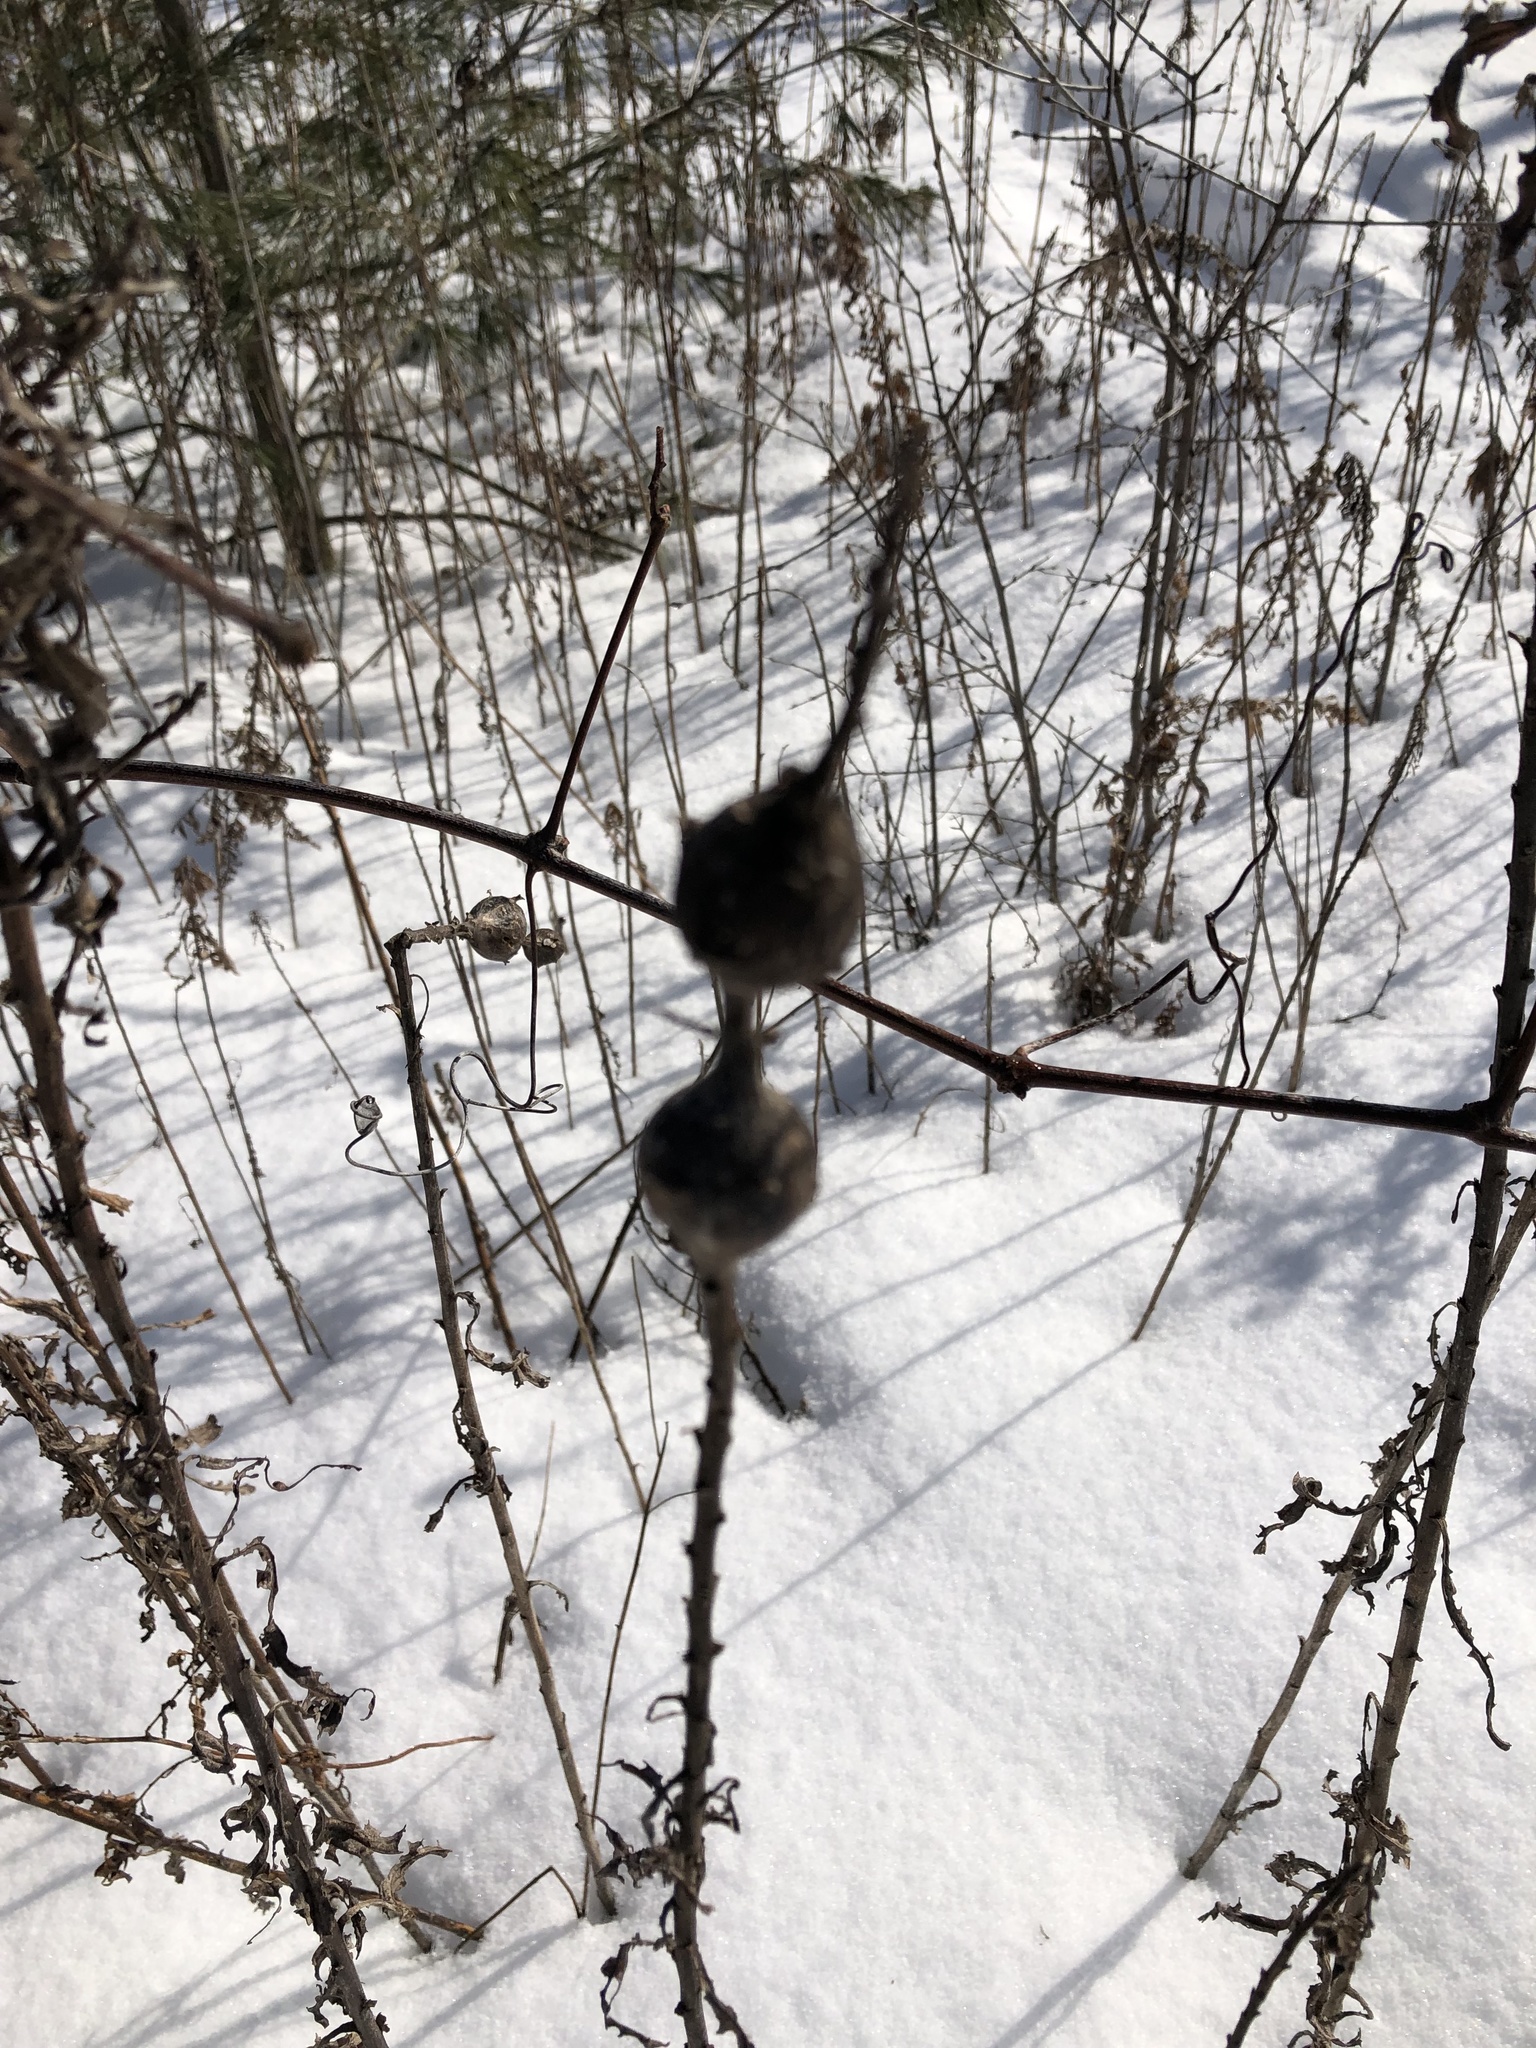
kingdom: Animalia
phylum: Arthropoda
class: Insecta
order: Diptera
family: Tephritidae
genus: Eurosta
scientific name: Eurosta solidaginis
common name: Goldenrod gall fly
